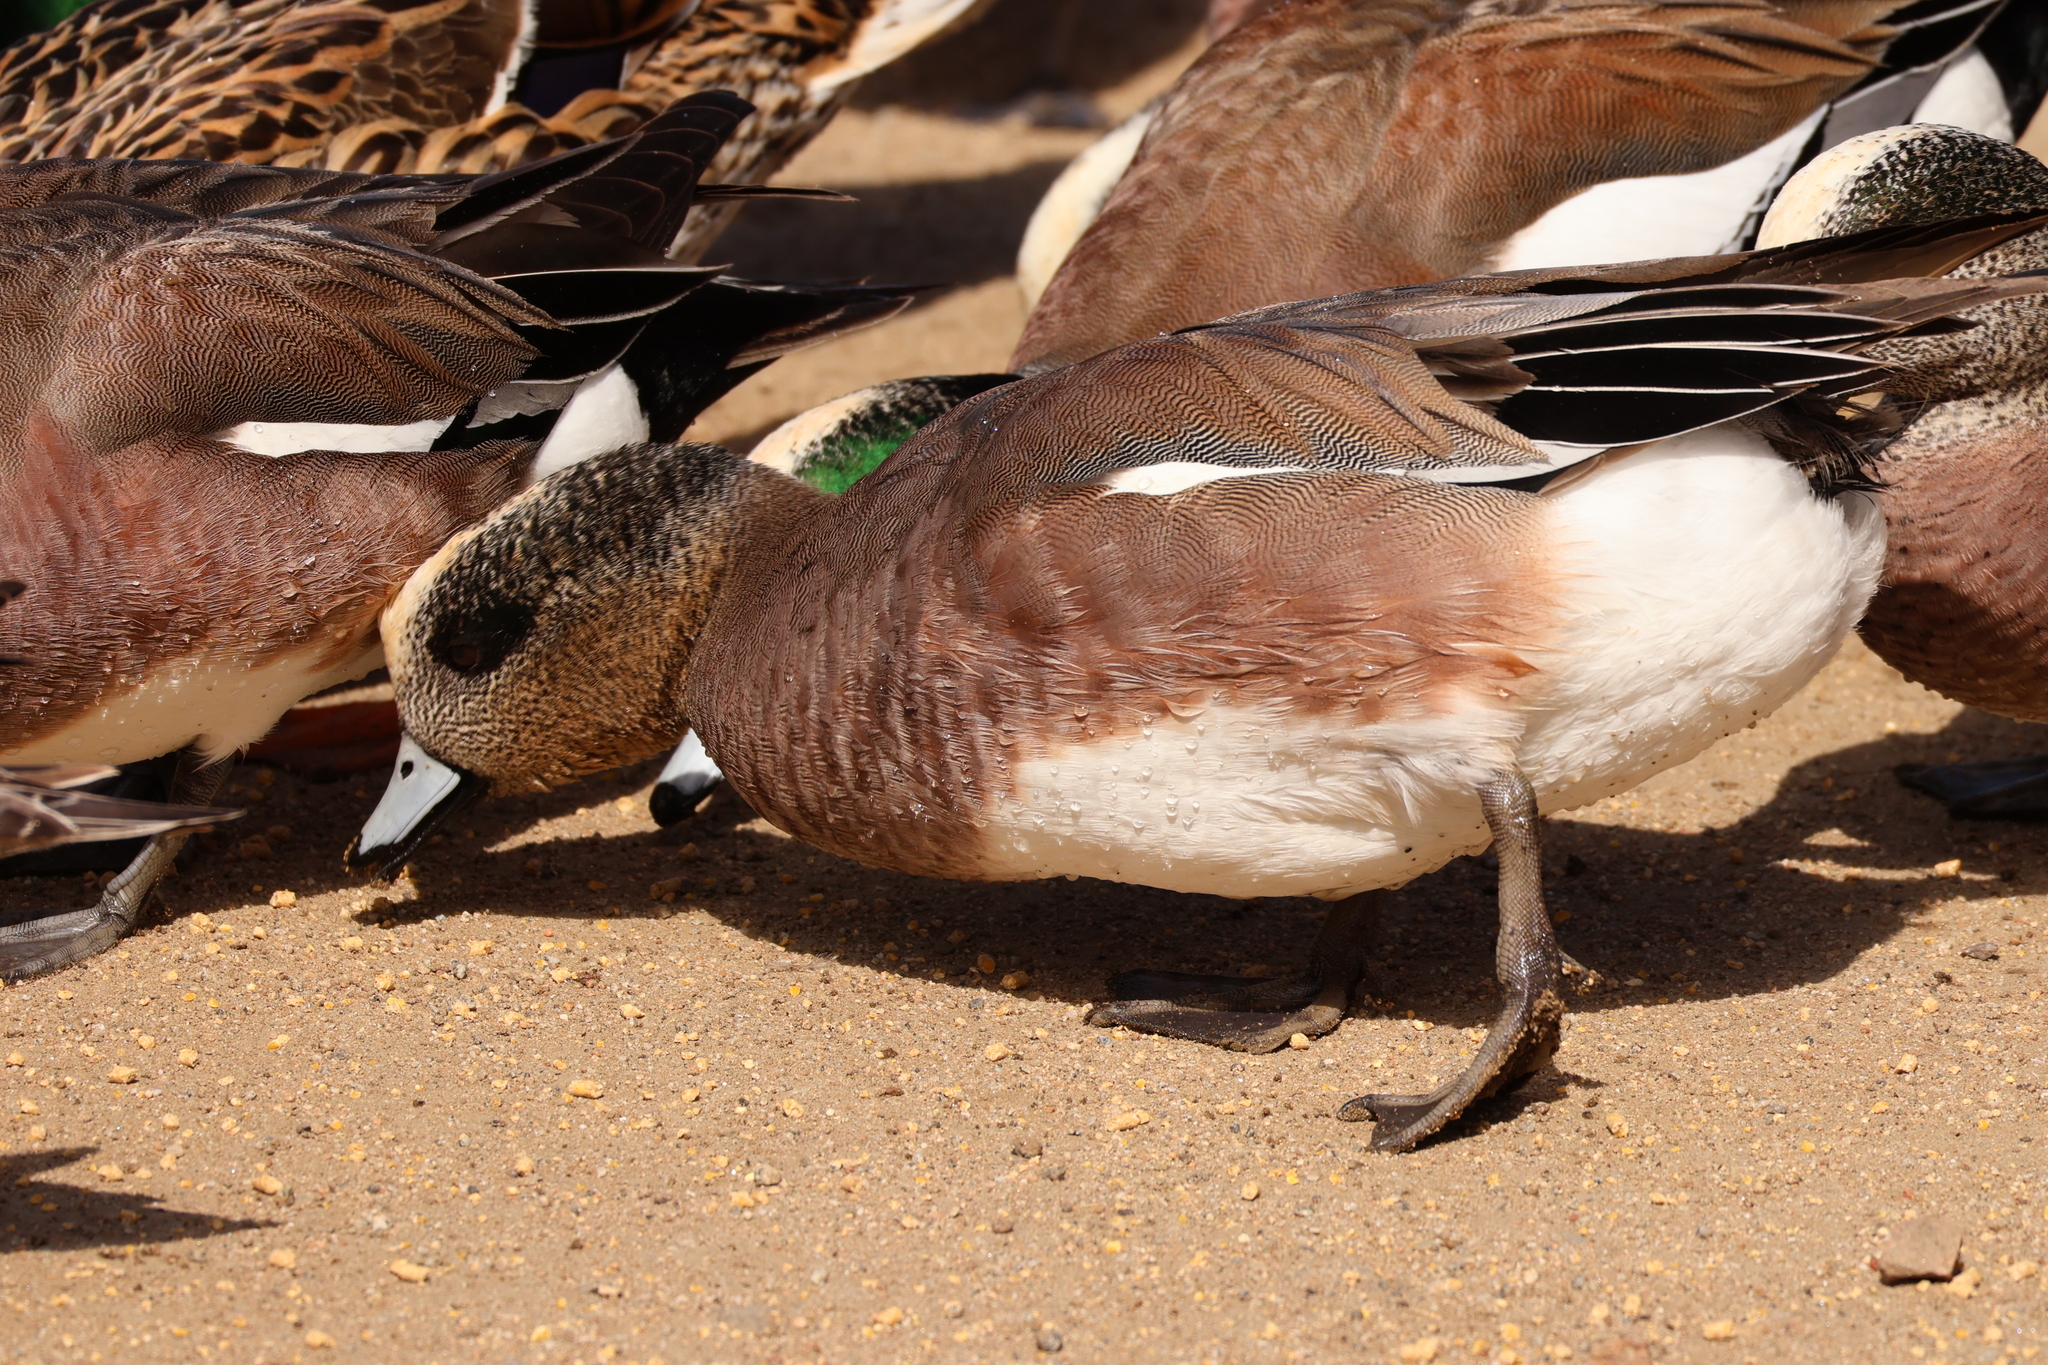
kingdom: Animalia
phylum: Chordata
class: Aves
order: Anseriformes
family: Anatidae
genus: Mareca
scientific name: Mareca americana
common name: American wigeon
